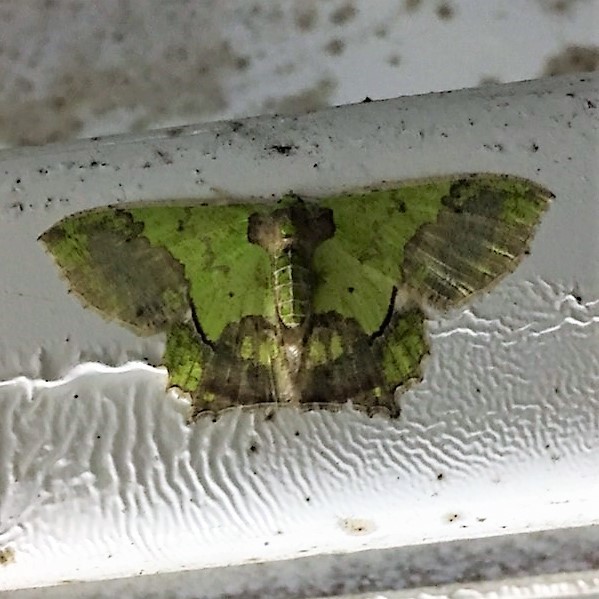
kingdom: Animalia
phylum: Arthropoda
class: Insecta
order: Lepidoptera
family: Geometridae
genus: Agathia
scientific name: Agathia codina
